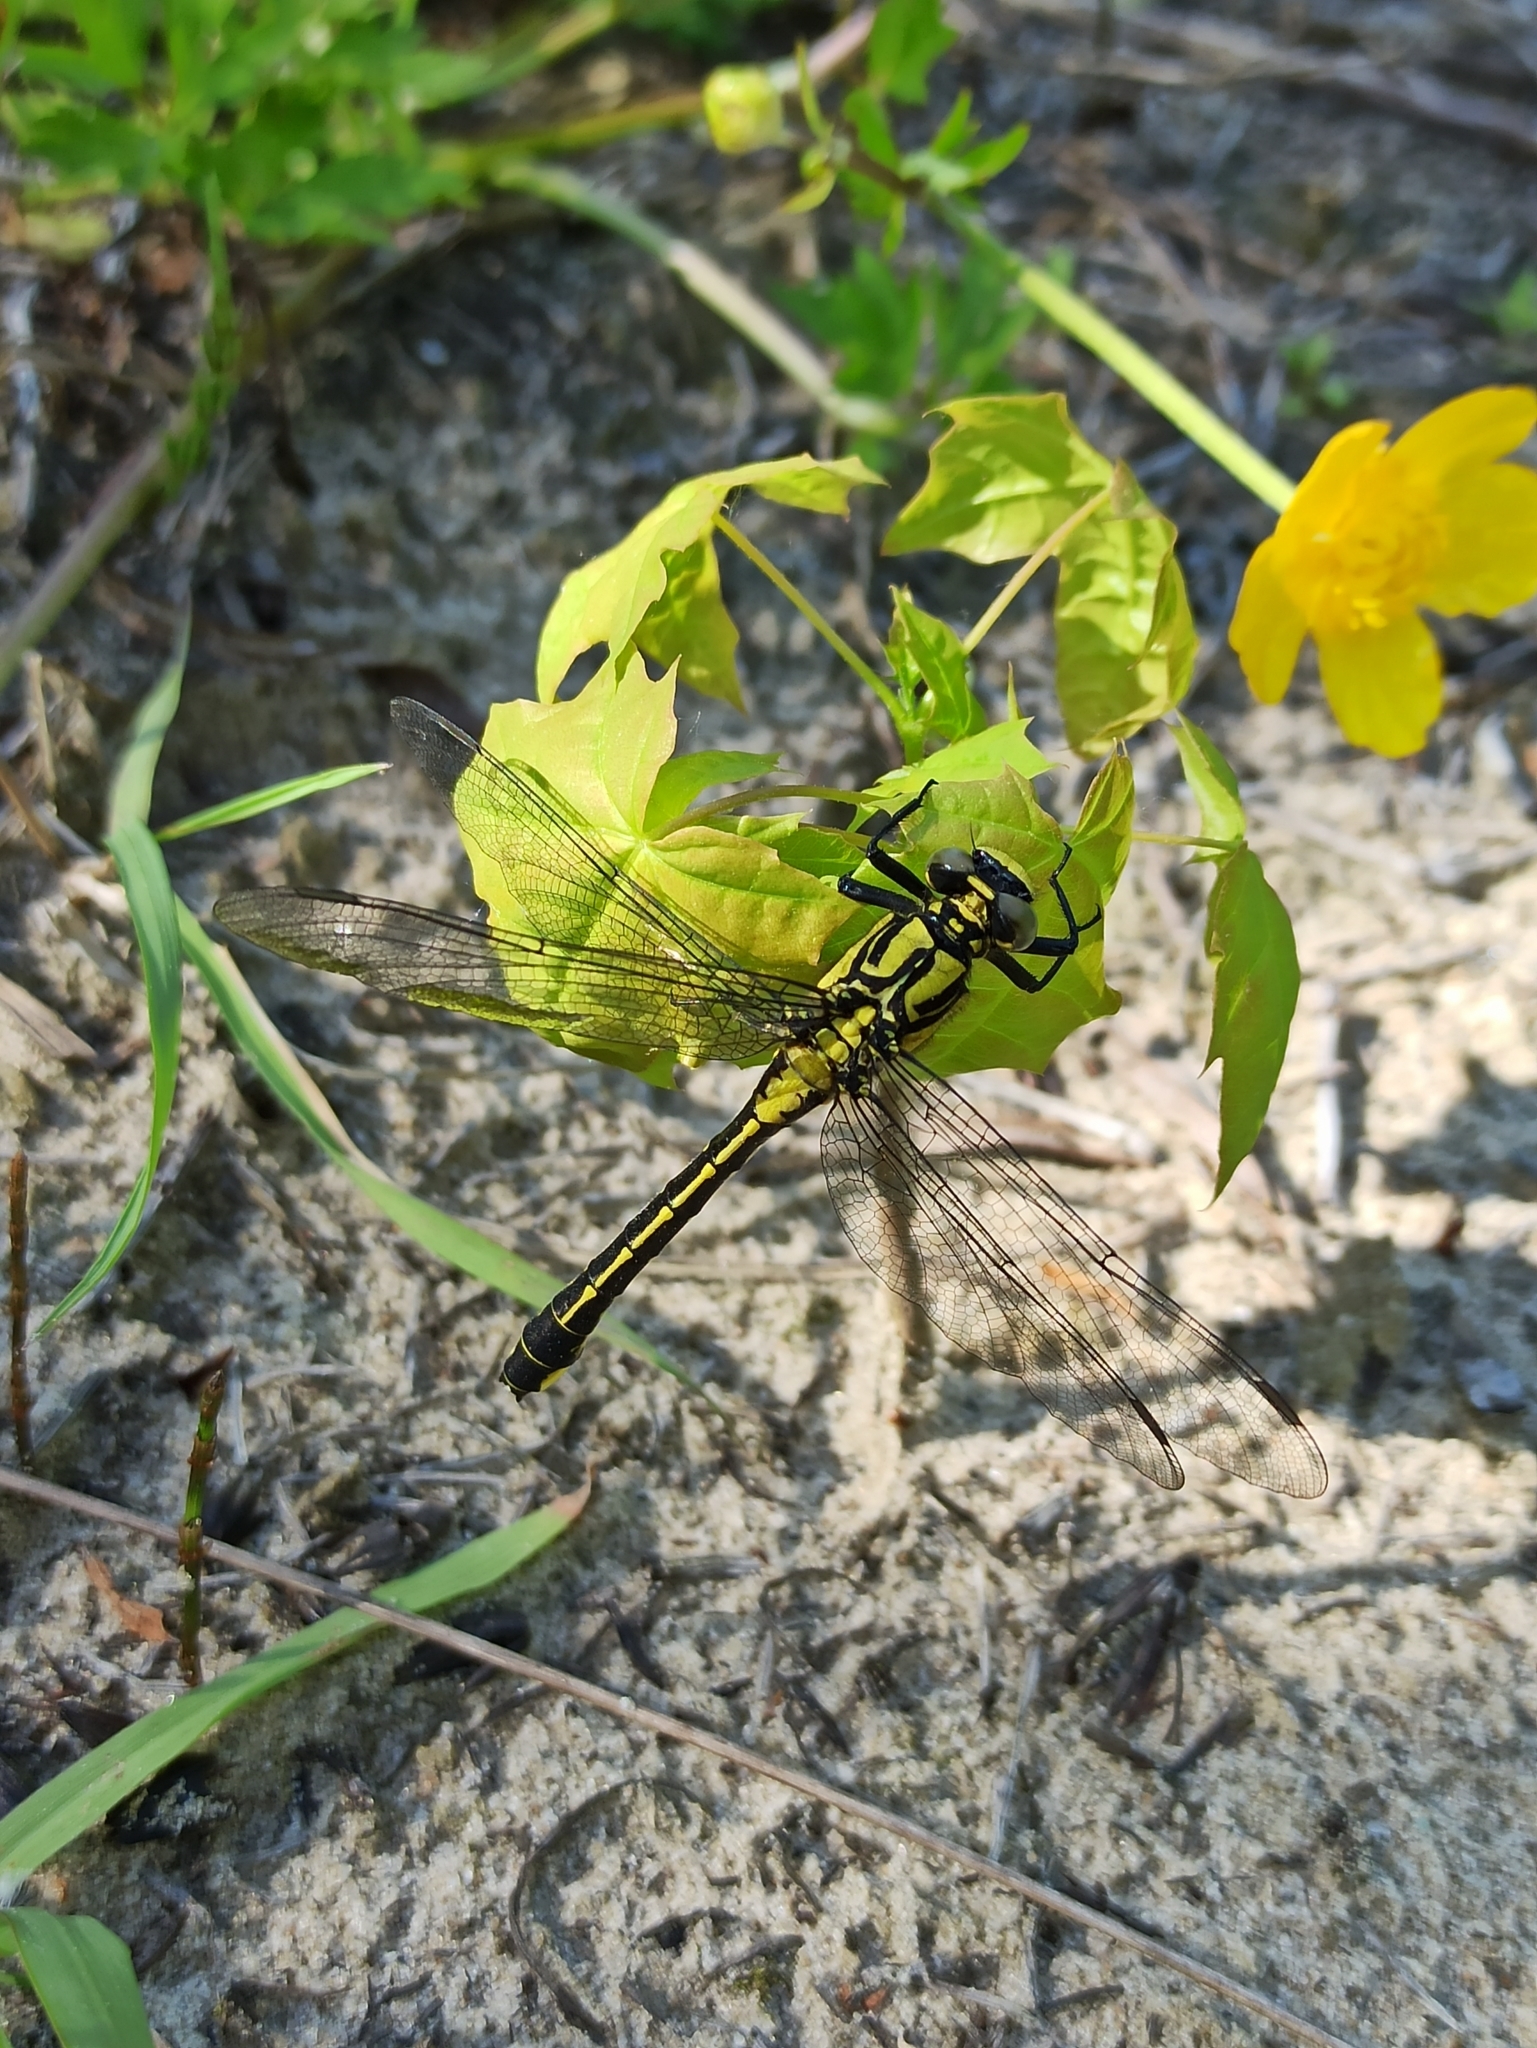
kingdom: Animalia
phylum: Arthropoda
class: Insecta
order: Odonata
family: Gomphidae
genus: Gomphus
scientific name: Gomphus vulgatissimus
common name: Club-tailed dragonfly
